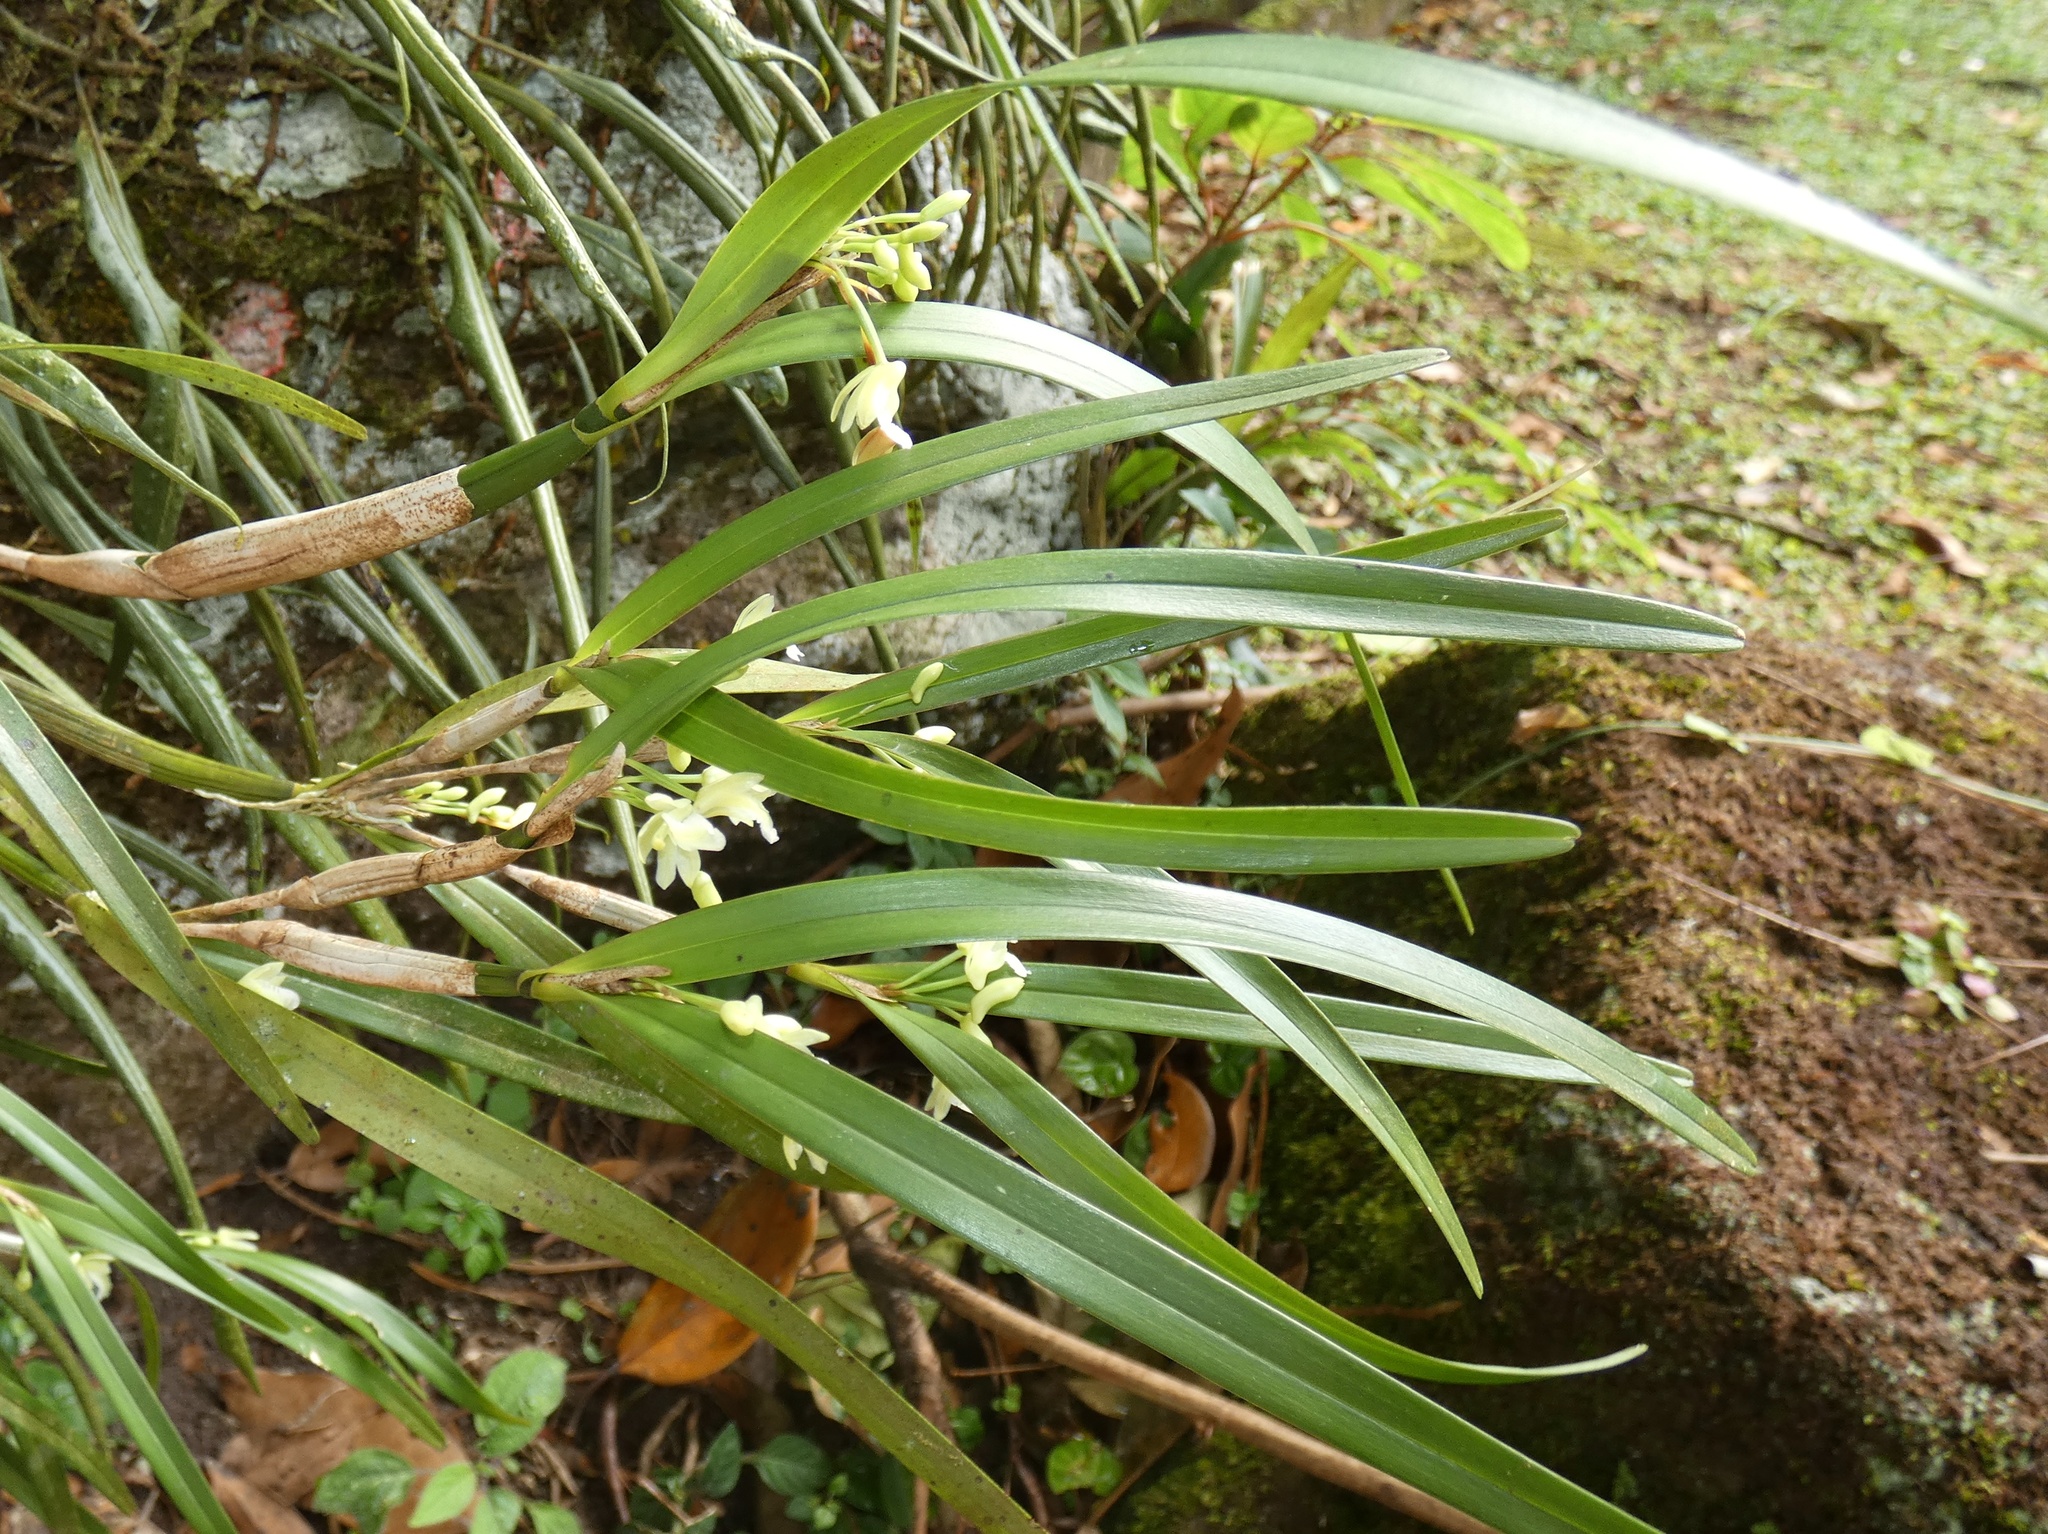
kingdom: Plantae
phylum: Tracheophyta
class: Liliopsida
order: Asparagales
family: Orchidaceae
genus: Scaphyglottis
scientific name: Scaphyglottis tenella
